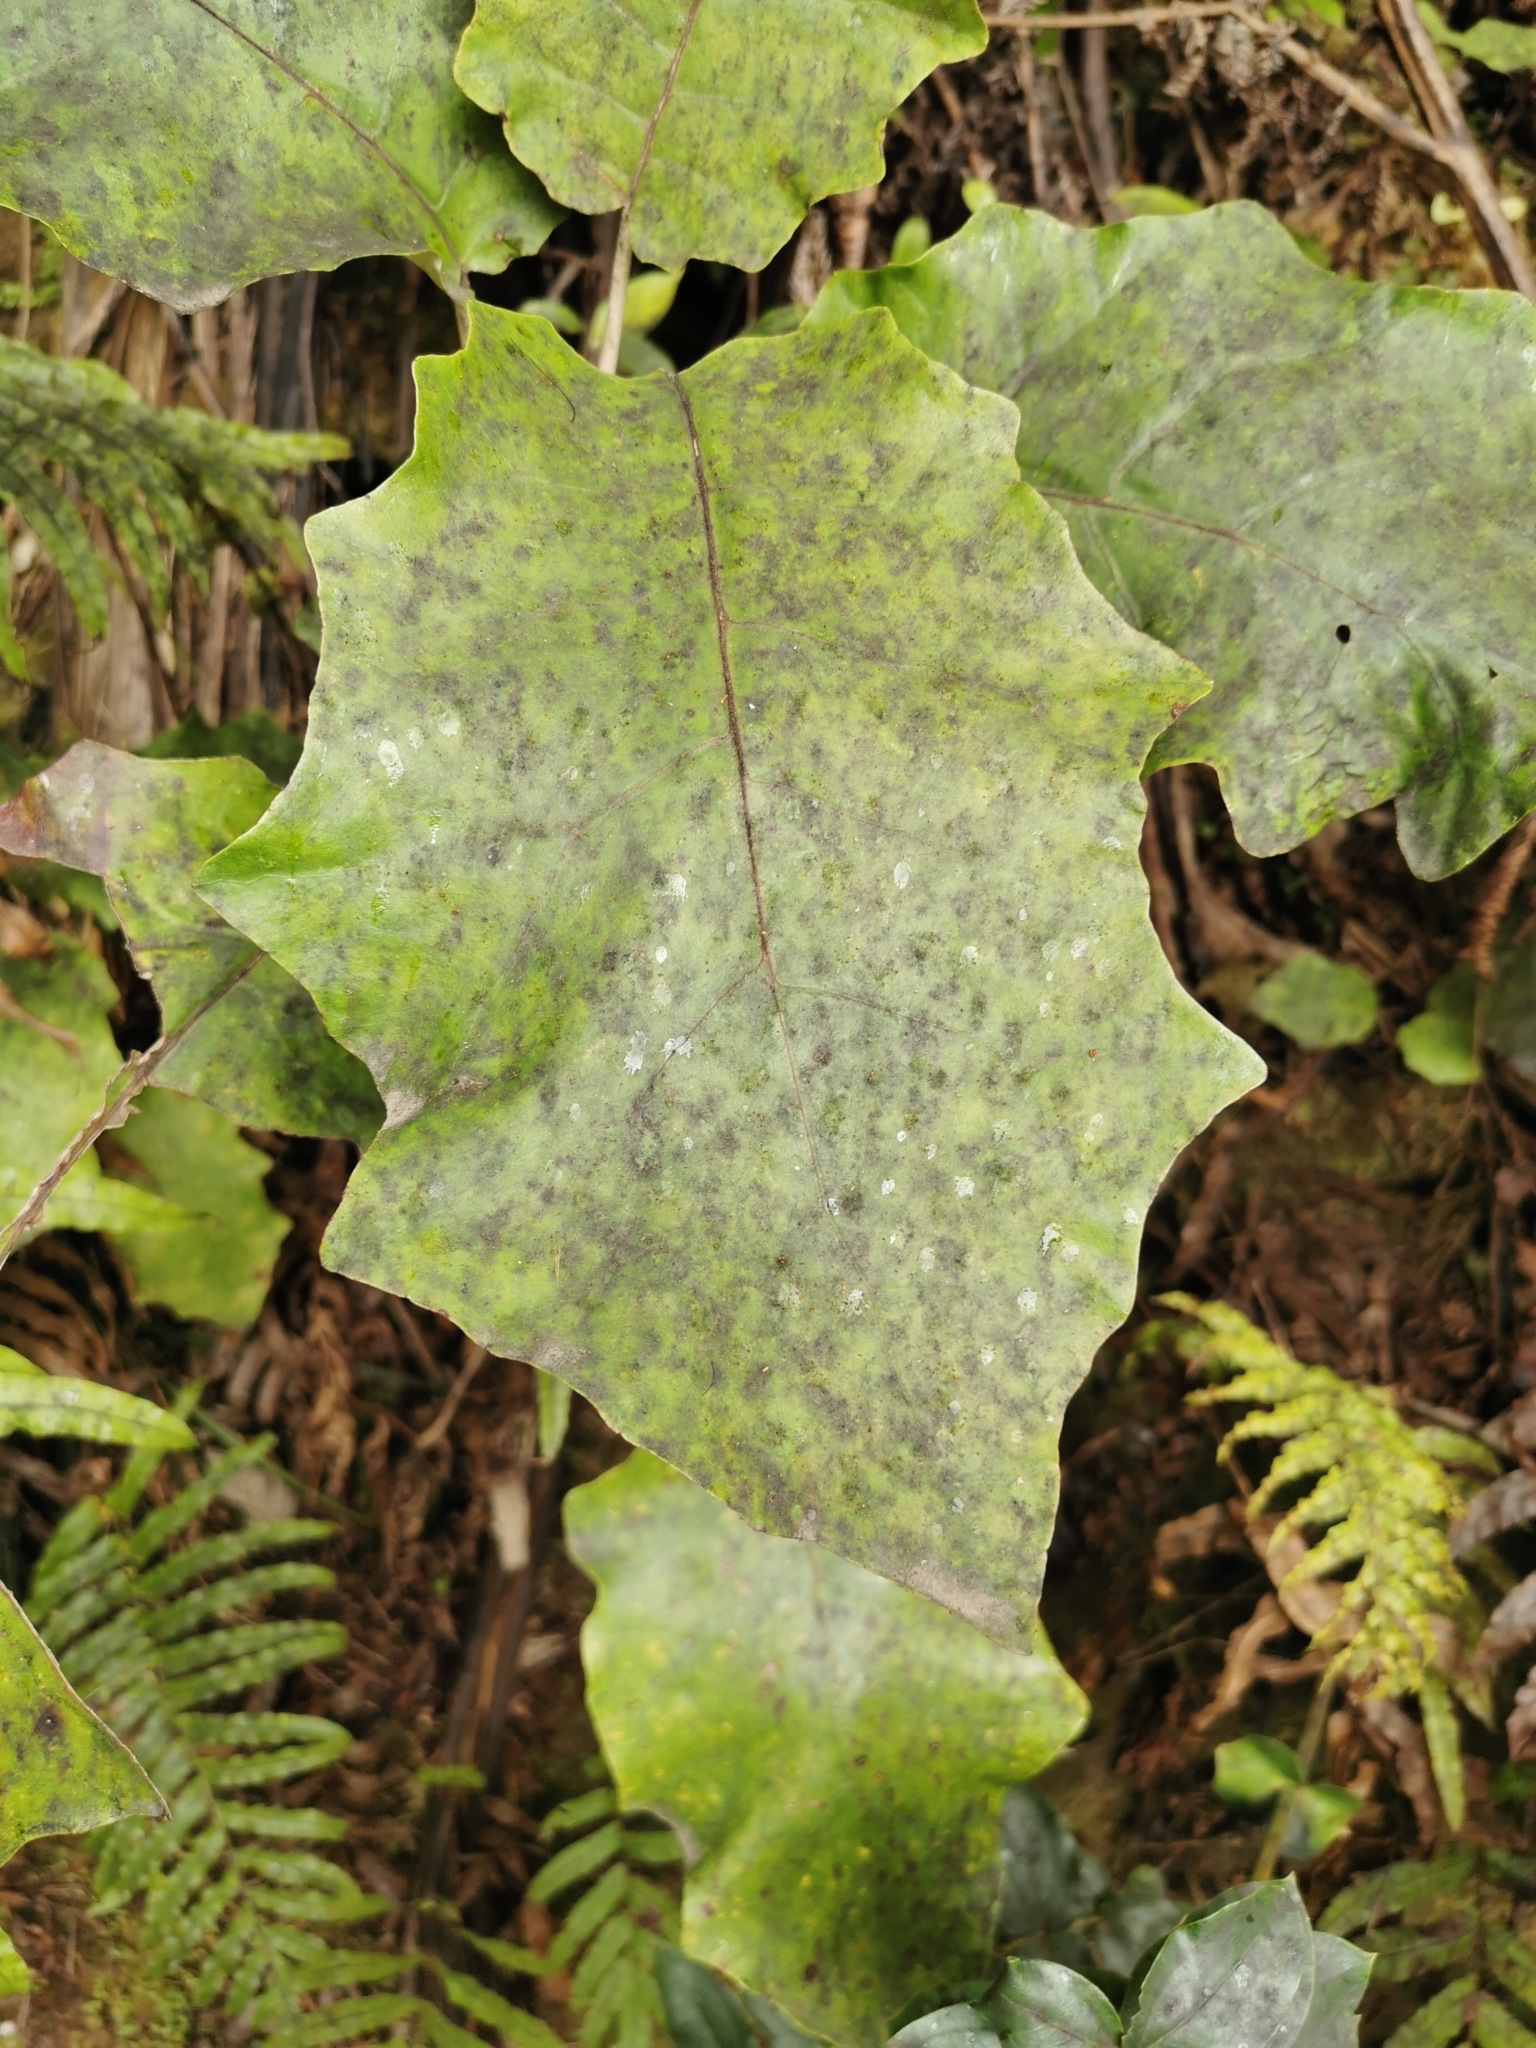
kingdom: Plantae
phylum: Tracheophyta
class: Magnoliopsida
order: Asterales
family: Asteraceae
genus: Brachyglottis
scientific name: Brachyglottis repanda
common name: Hedge ragwort
